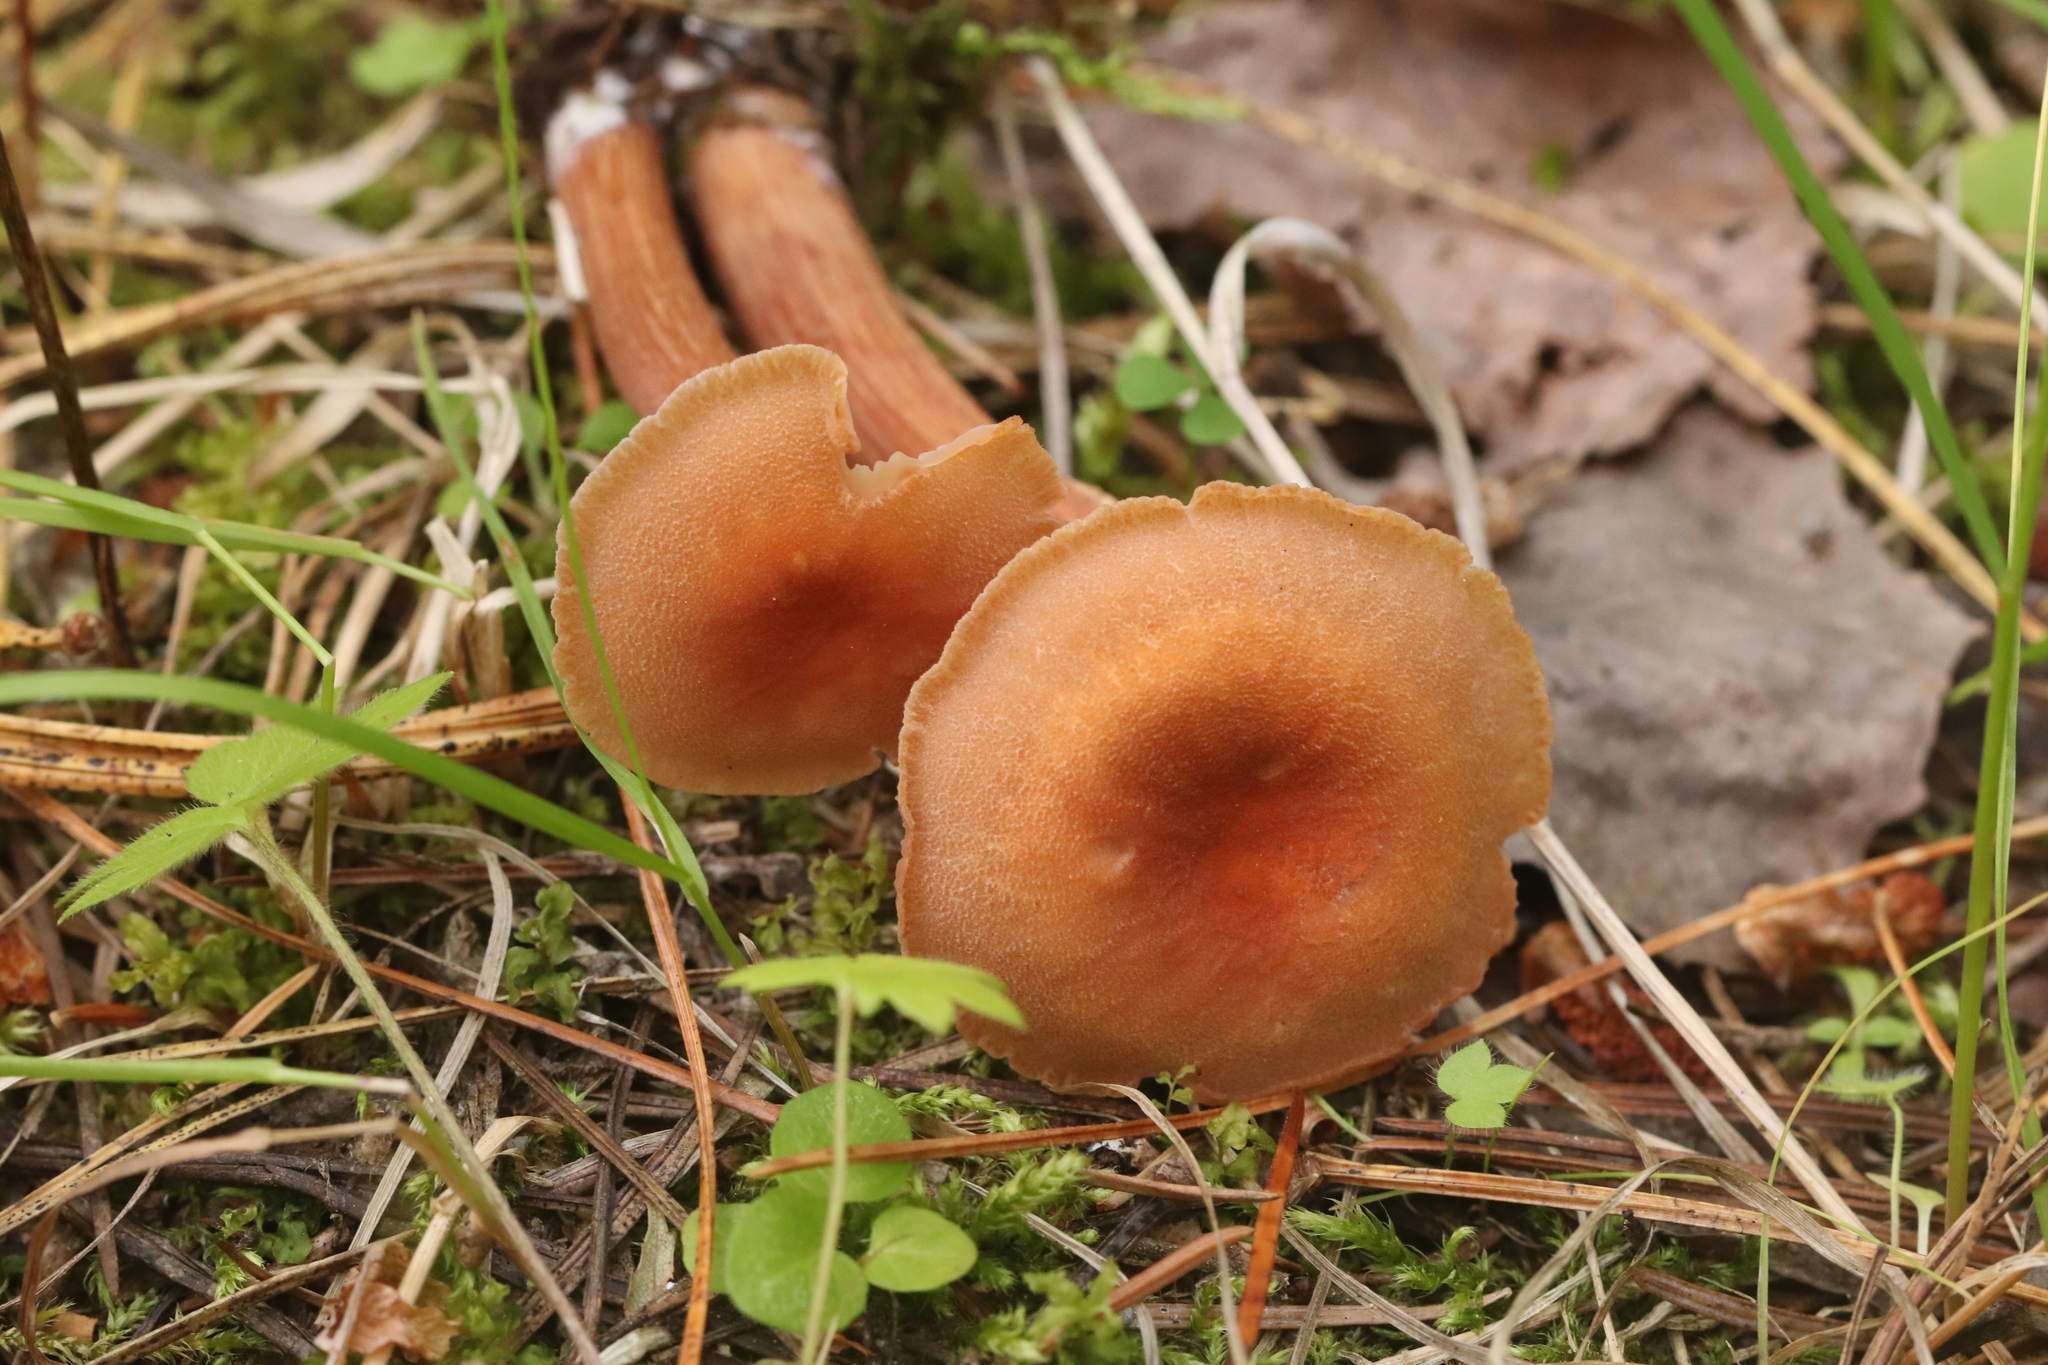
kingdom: Fungi
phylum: Basidiomycota
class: Agaricomycetes
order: Agaricales
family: Hydnangiaceae
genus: Laccaria
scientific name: Laccaria proxima
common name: Scurfy deceiver
